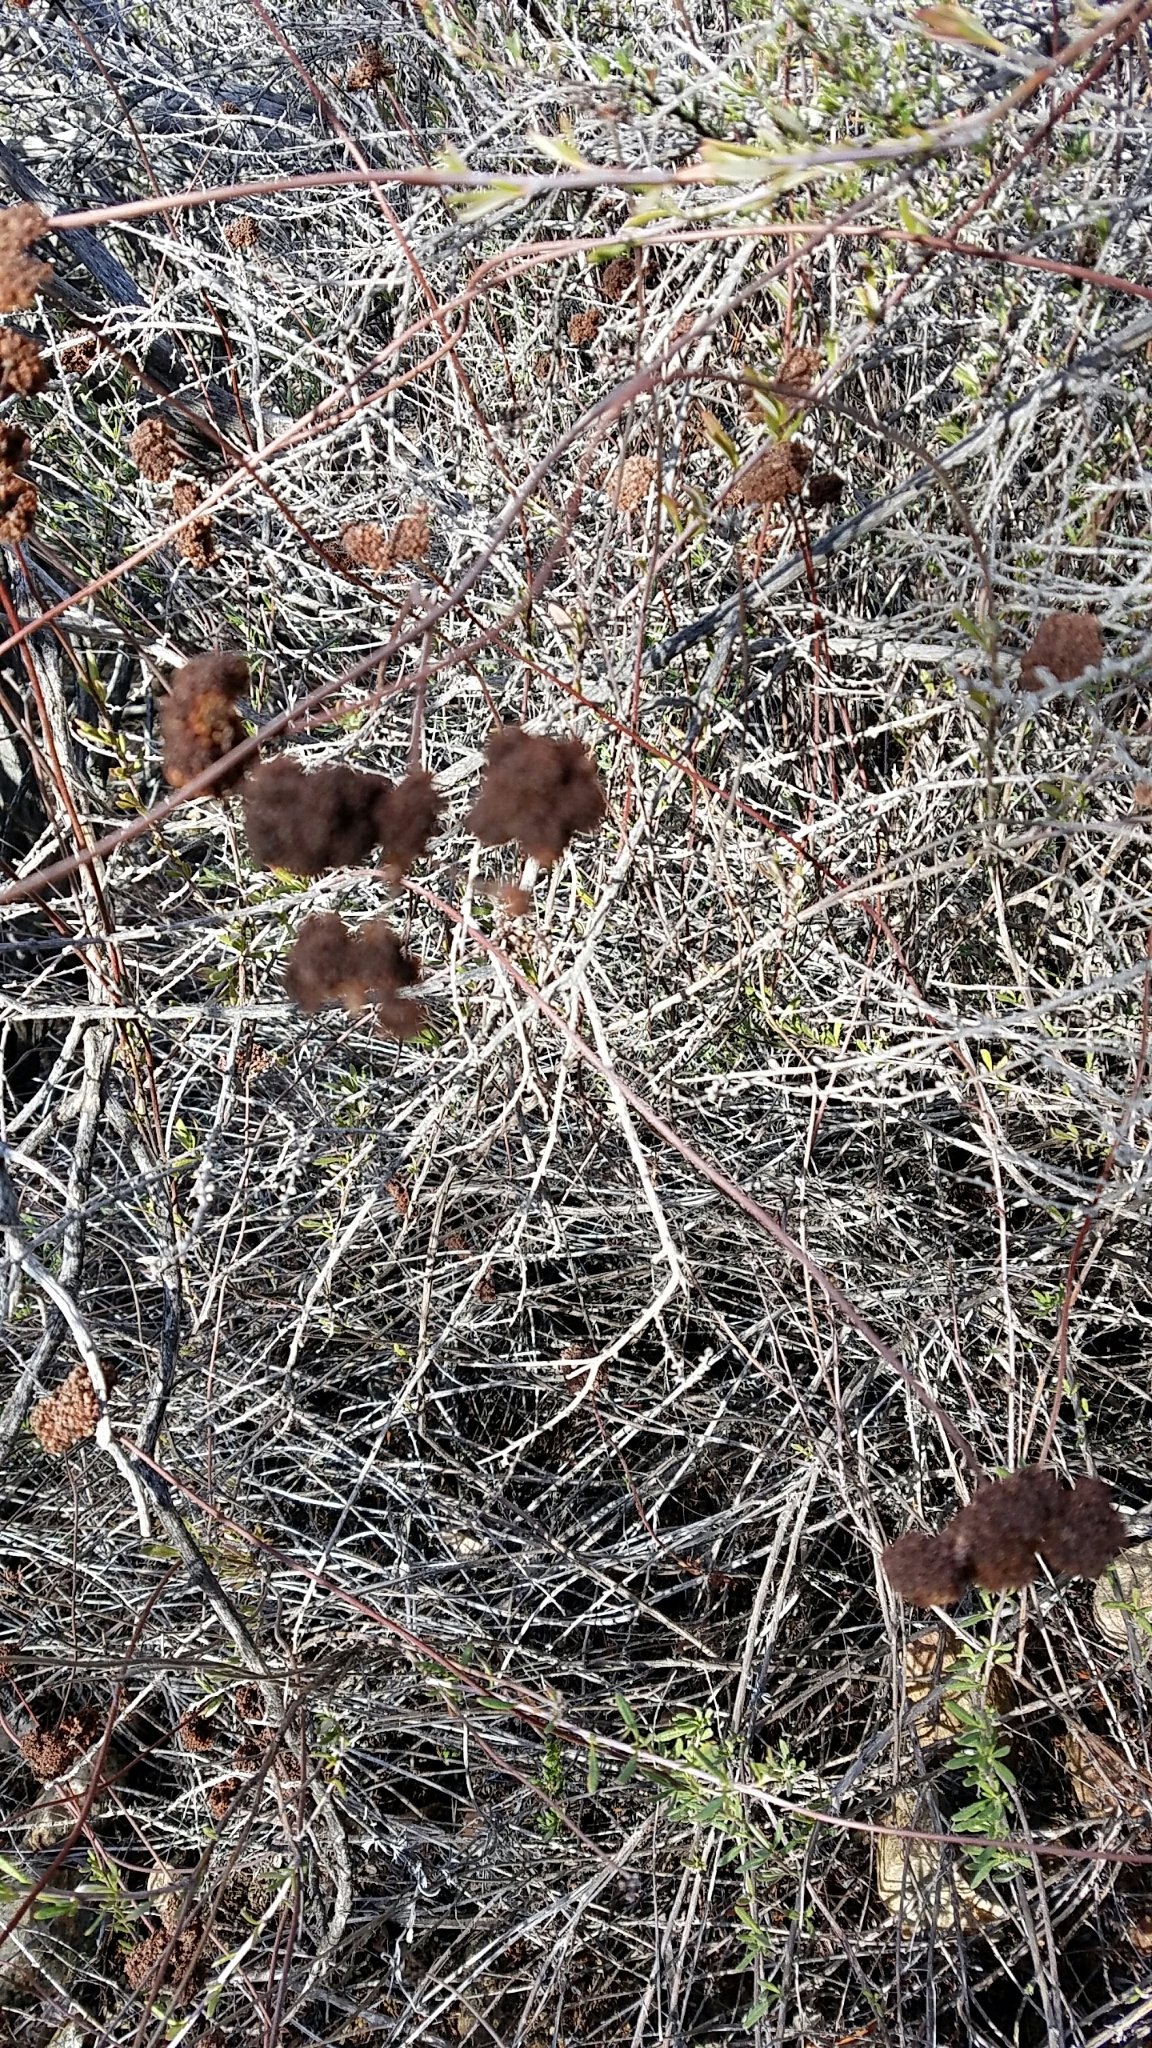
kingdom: Plantae
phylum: Tracheophyta
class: Magnoliopsida
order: Caryophyllales
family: Polygonaceae
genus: Eriogonum
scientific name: Eriogonum fasciculatum
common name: California wild buckwheat
